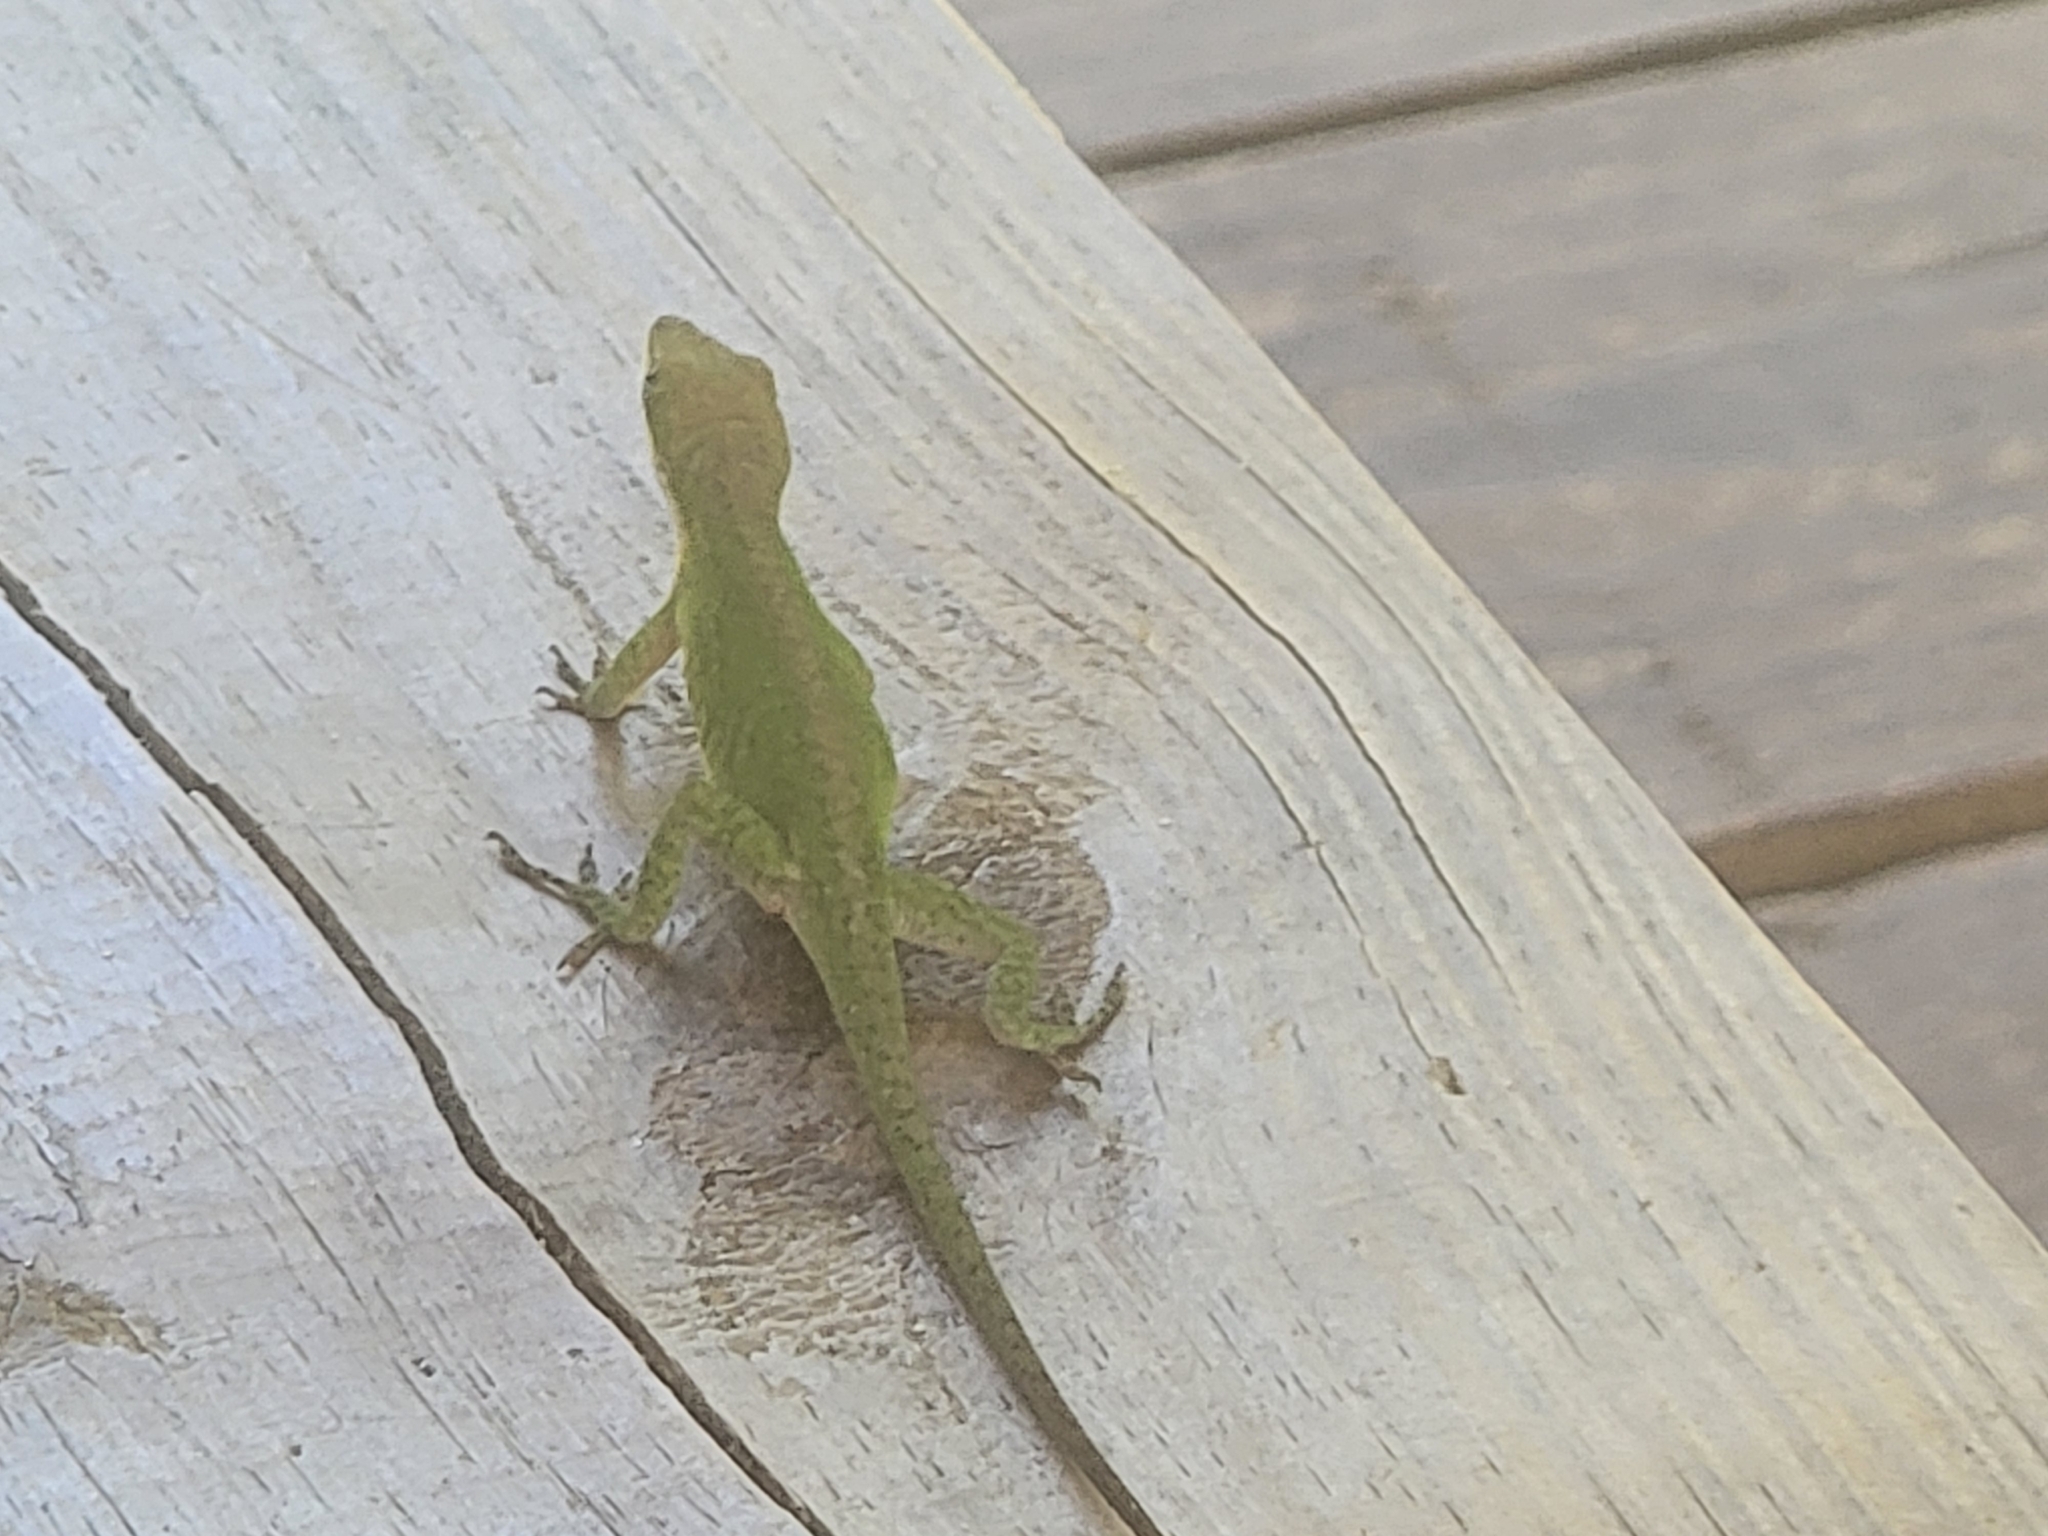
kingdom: Animalia
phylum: Chordata
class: Squamata
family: Dactyloidae
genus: Anolis
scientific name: Anolis carolinensis
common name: Green anole
